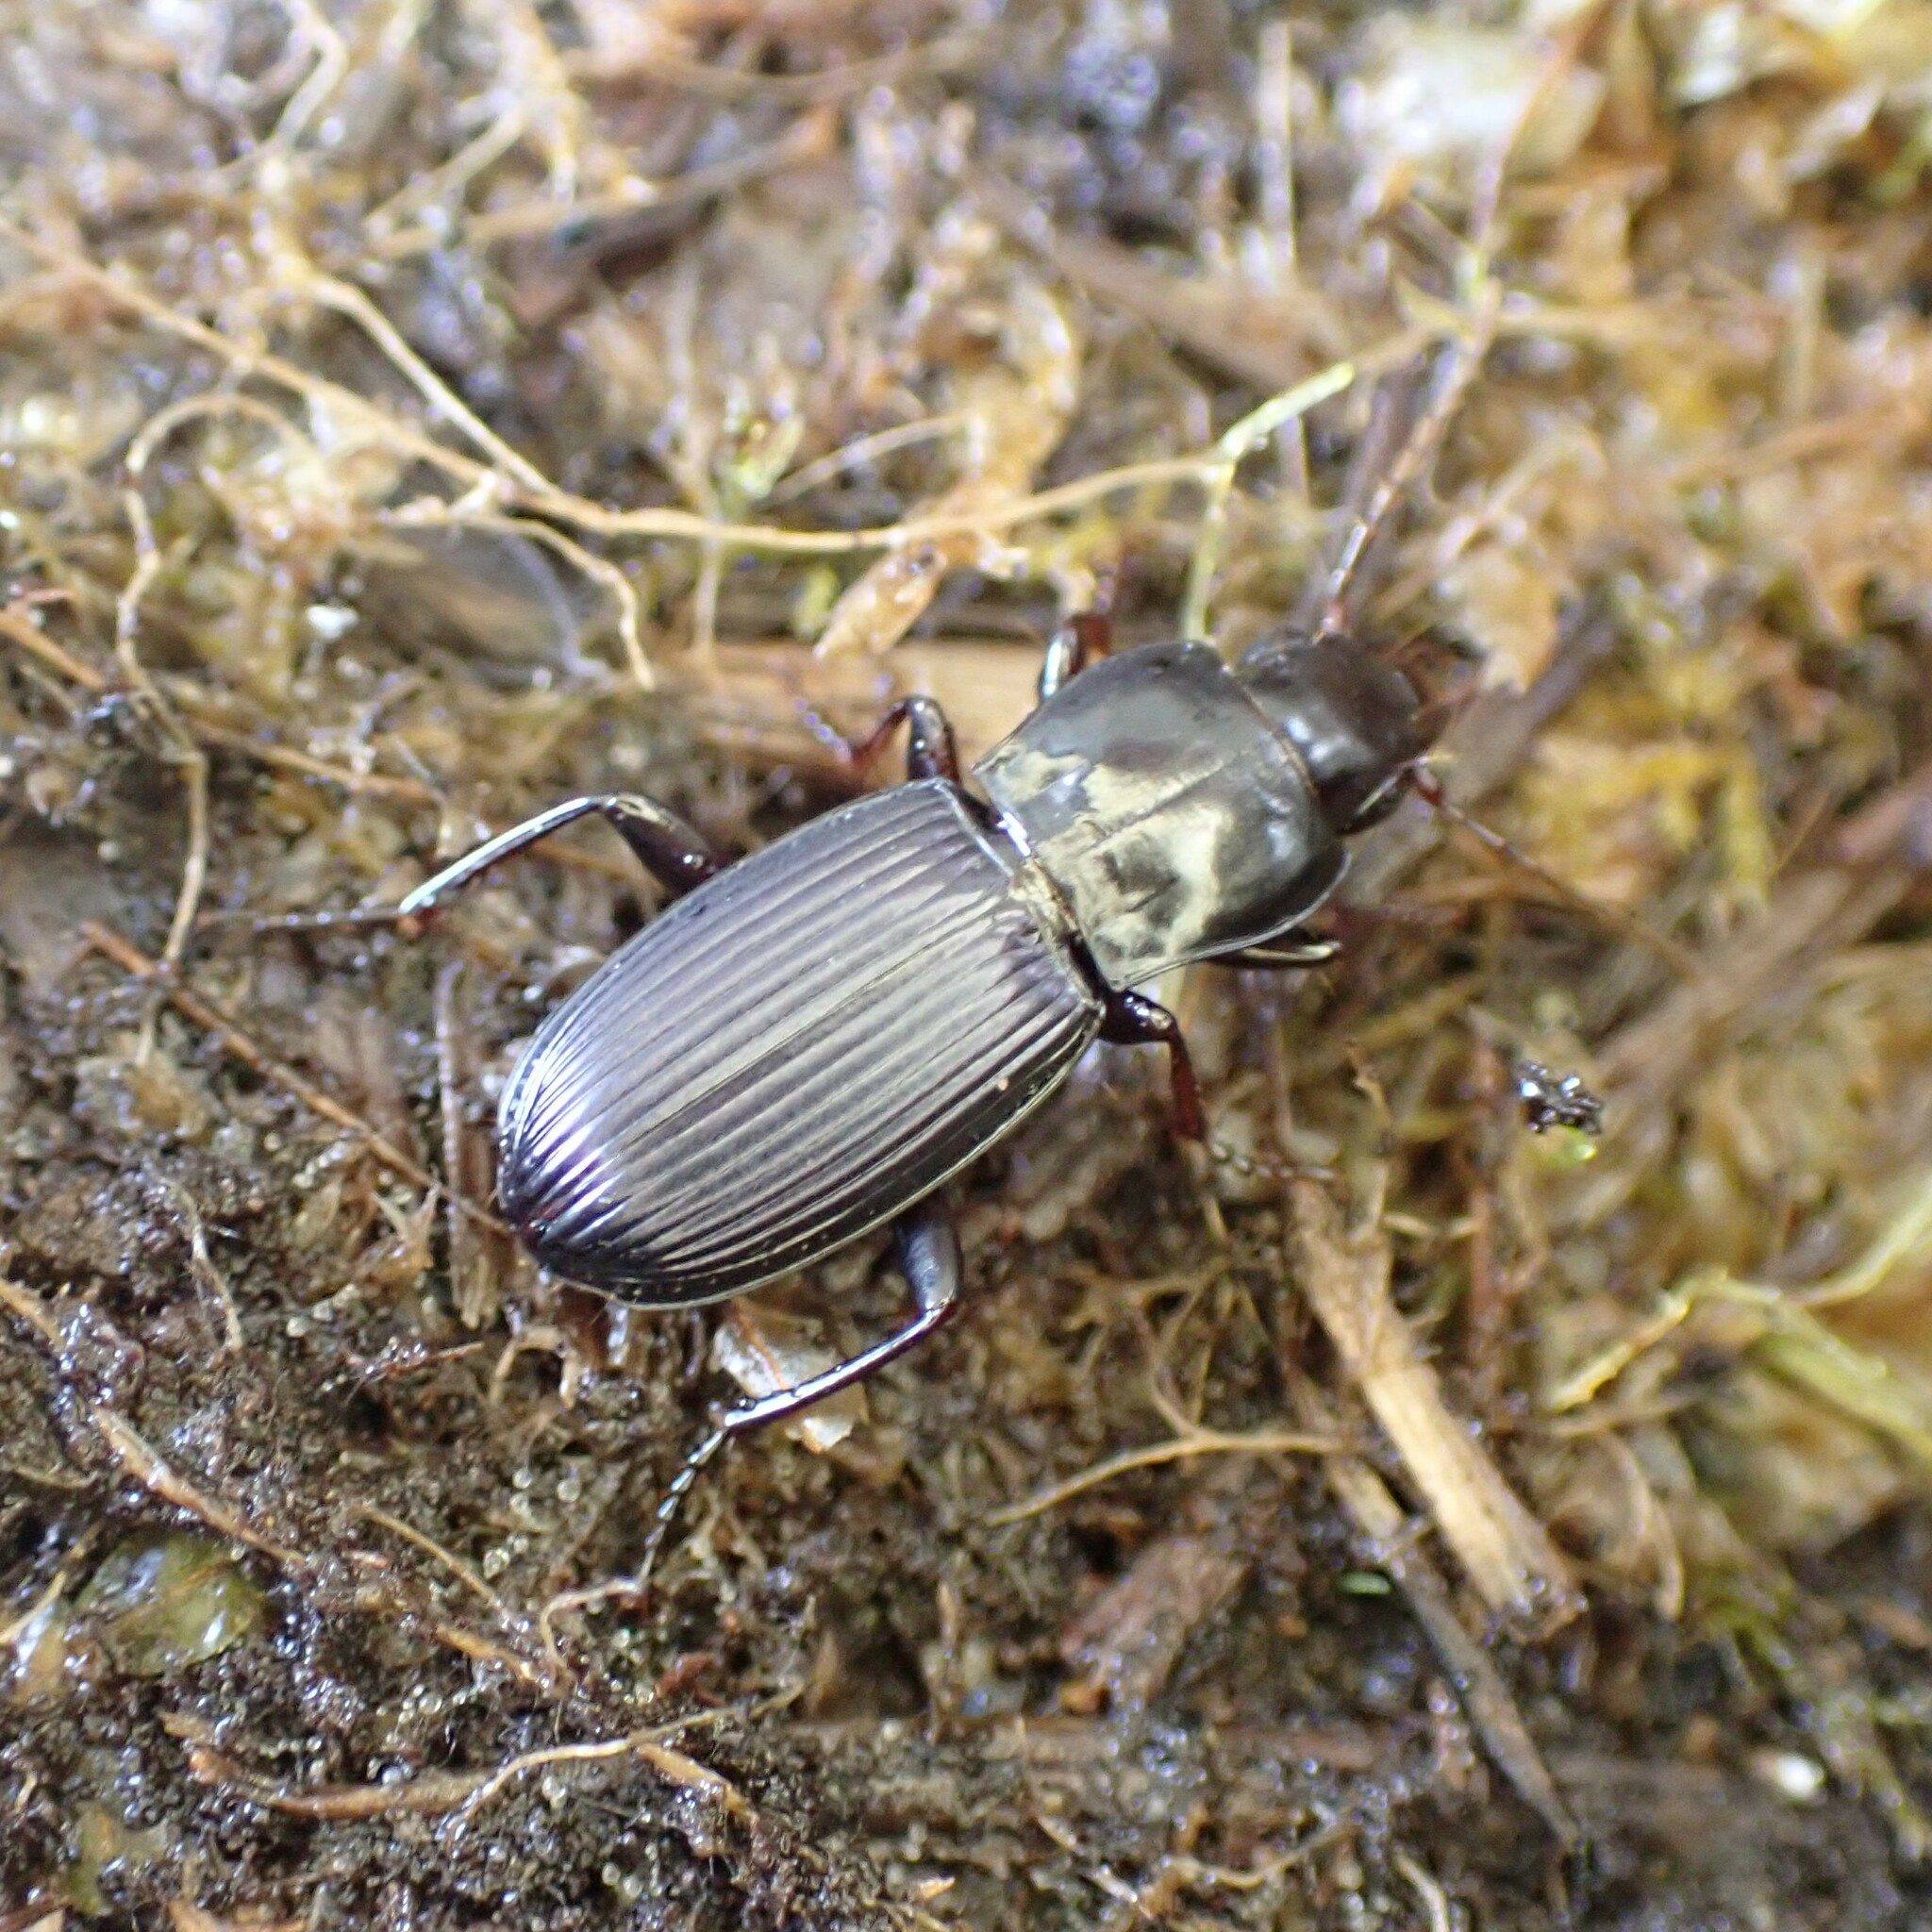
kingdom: Animalia
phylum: Arthropoda
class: Insecta
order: Coleoptera
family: Carabidae
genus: Pterostichus
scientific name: Pterostichus algidus
